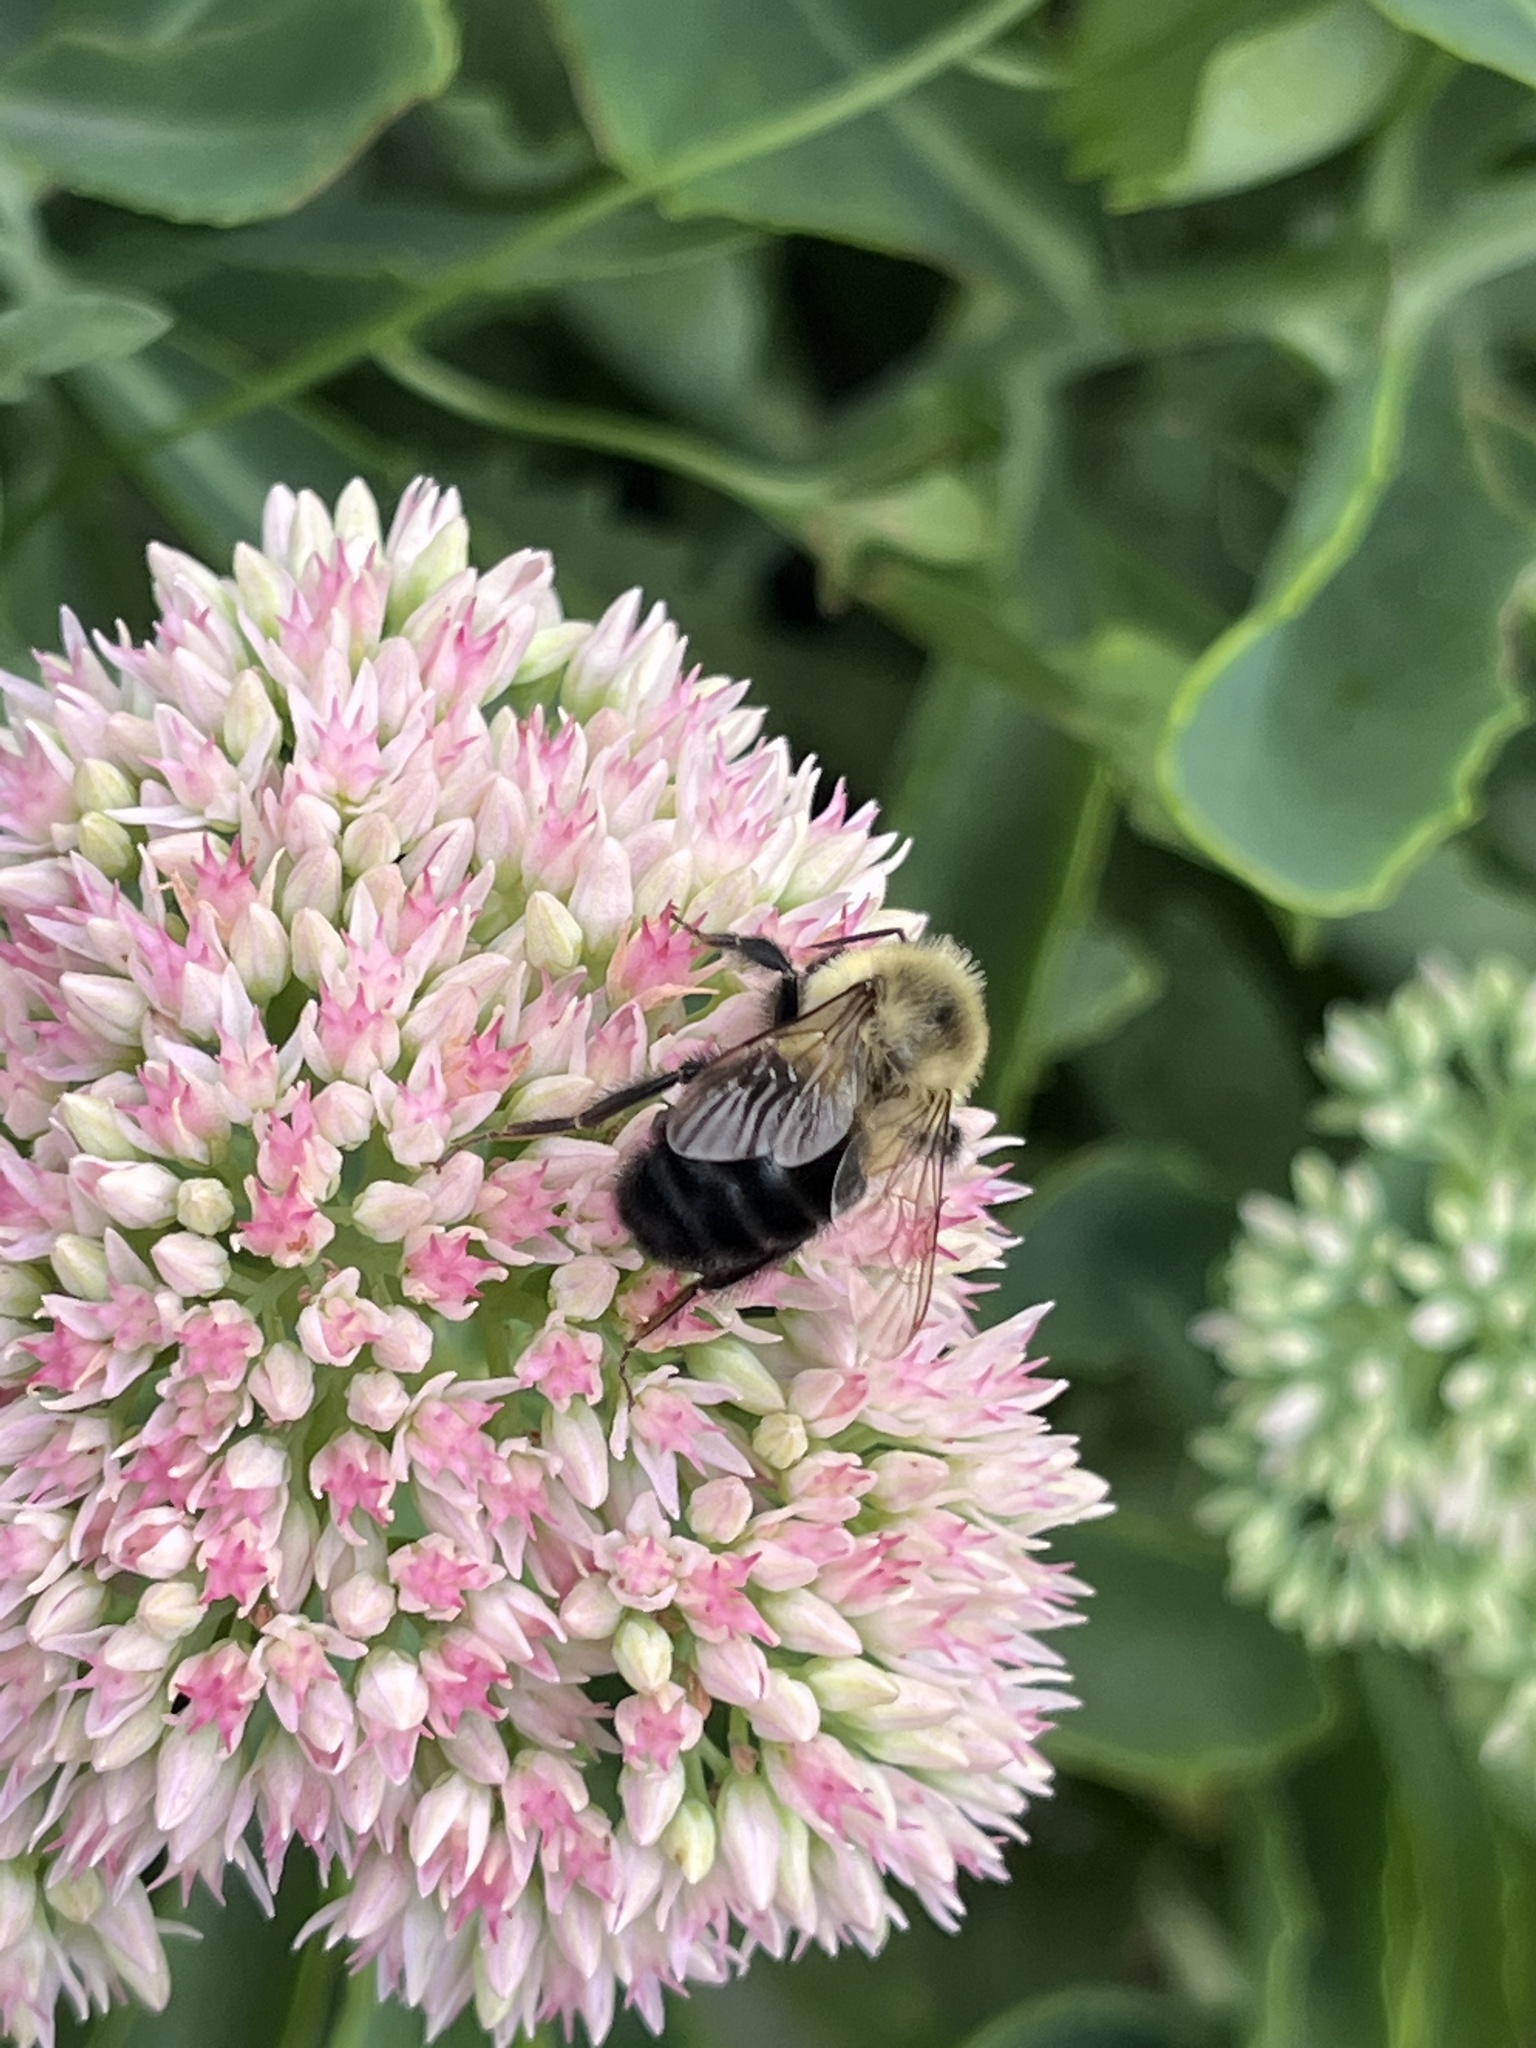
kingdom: Animalia
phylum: Arthropoda
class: Insecta
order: Hymenoptera
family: Apidae
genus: Bombus
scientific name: Bombus impatiens
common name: Common eastern bumble bee
